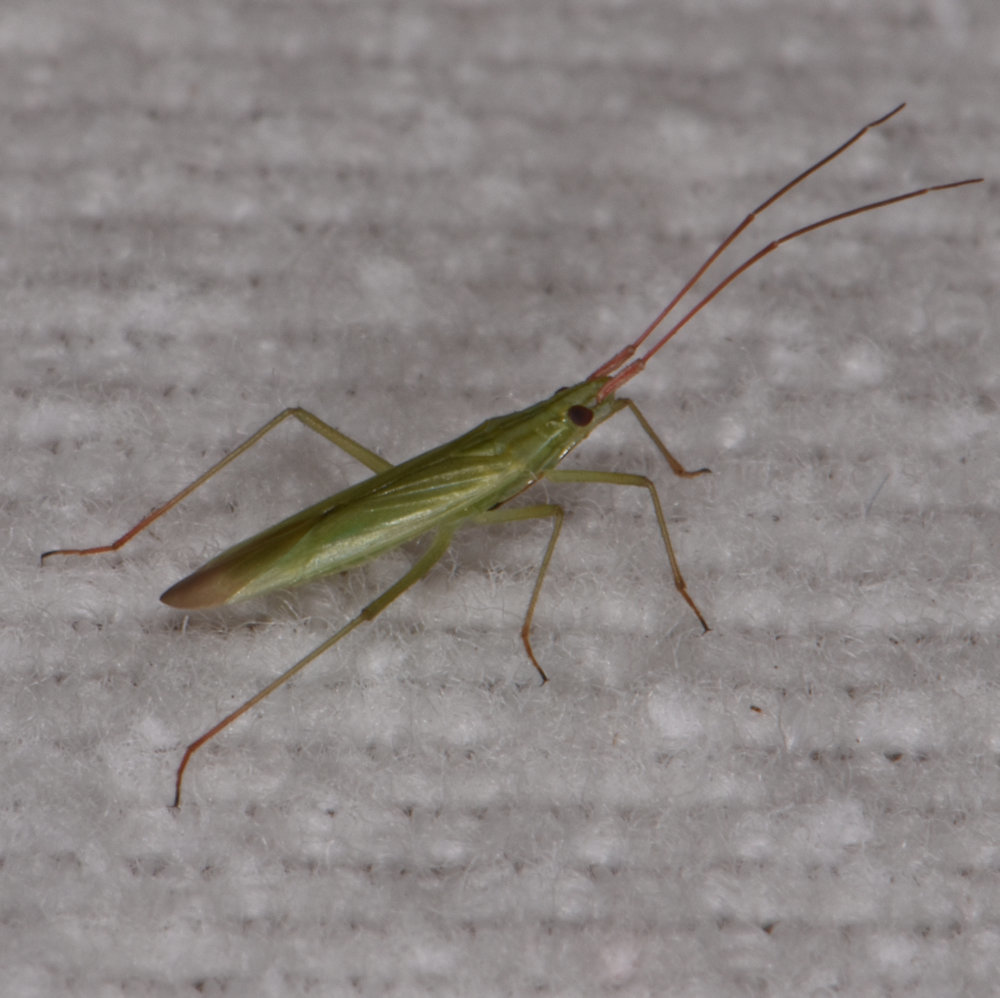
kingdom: Animalia
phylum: Arthropoda
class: Insecta
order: Hemiptera
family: Miridae
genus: Trigonotylus
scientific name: Trigonotylus caelestialium
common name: Rice leaf bug
